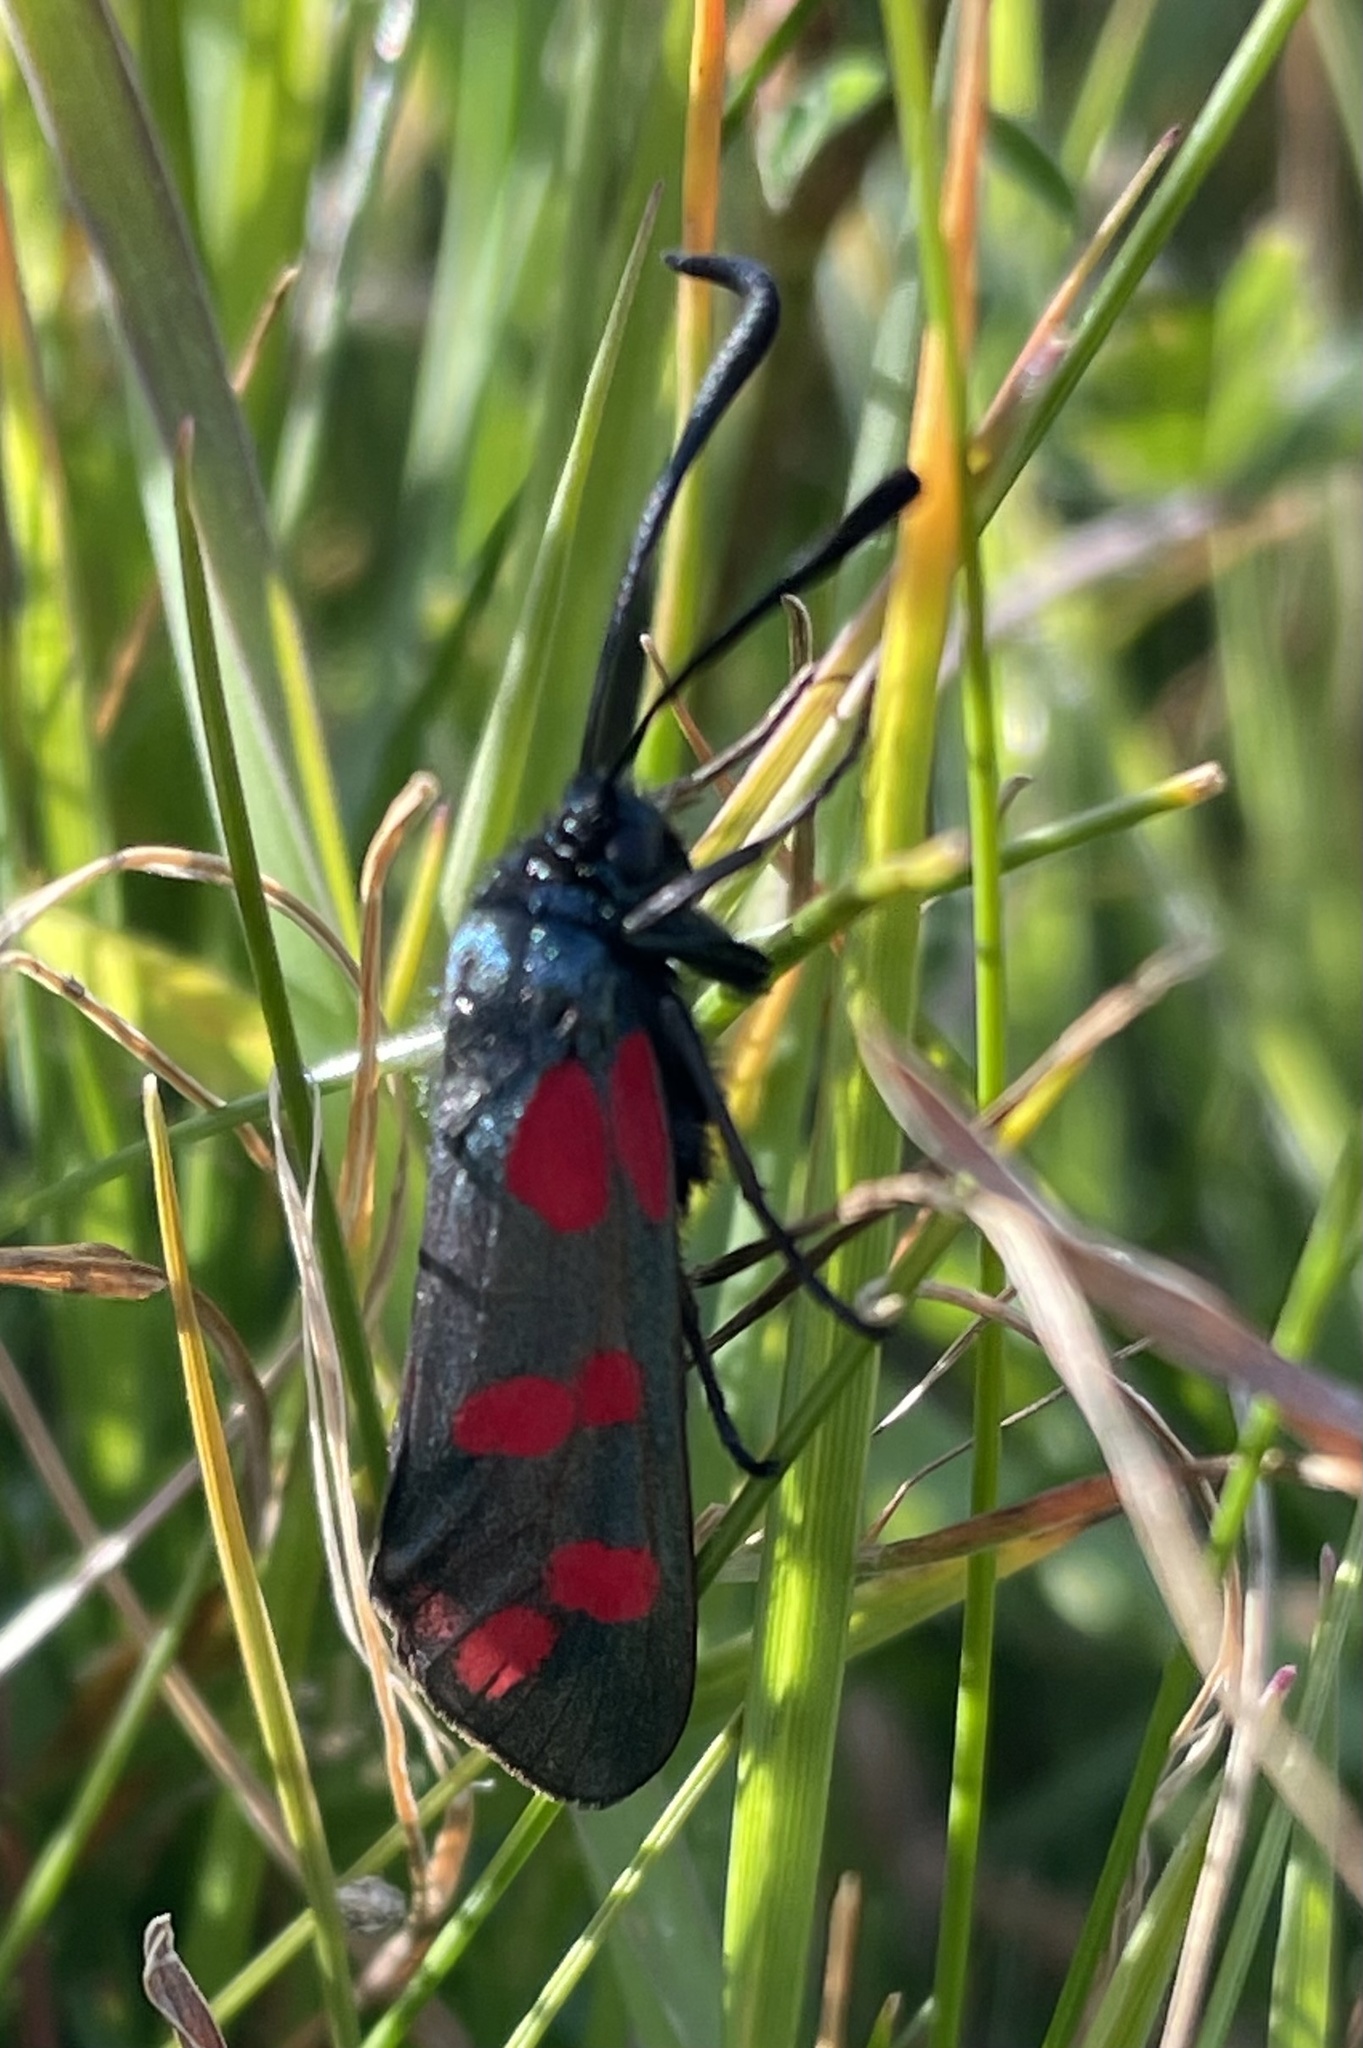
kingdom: Animalia
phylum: Arthropoda
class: Insecta
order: Lepidoptera
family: Zygaenidae
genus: Zygaena
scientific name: Zygaena filipendulae
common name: Six-spot burnet
